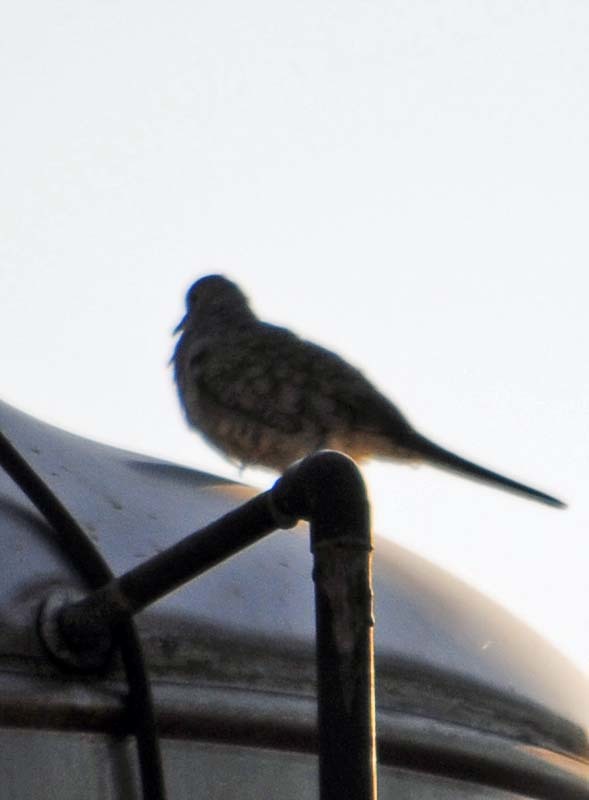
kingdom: Animalia
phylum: Chordata
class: Aves
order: Columbiformes
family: Columbidae
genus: Columbina
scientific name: Columbina inca
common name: Inca dove
